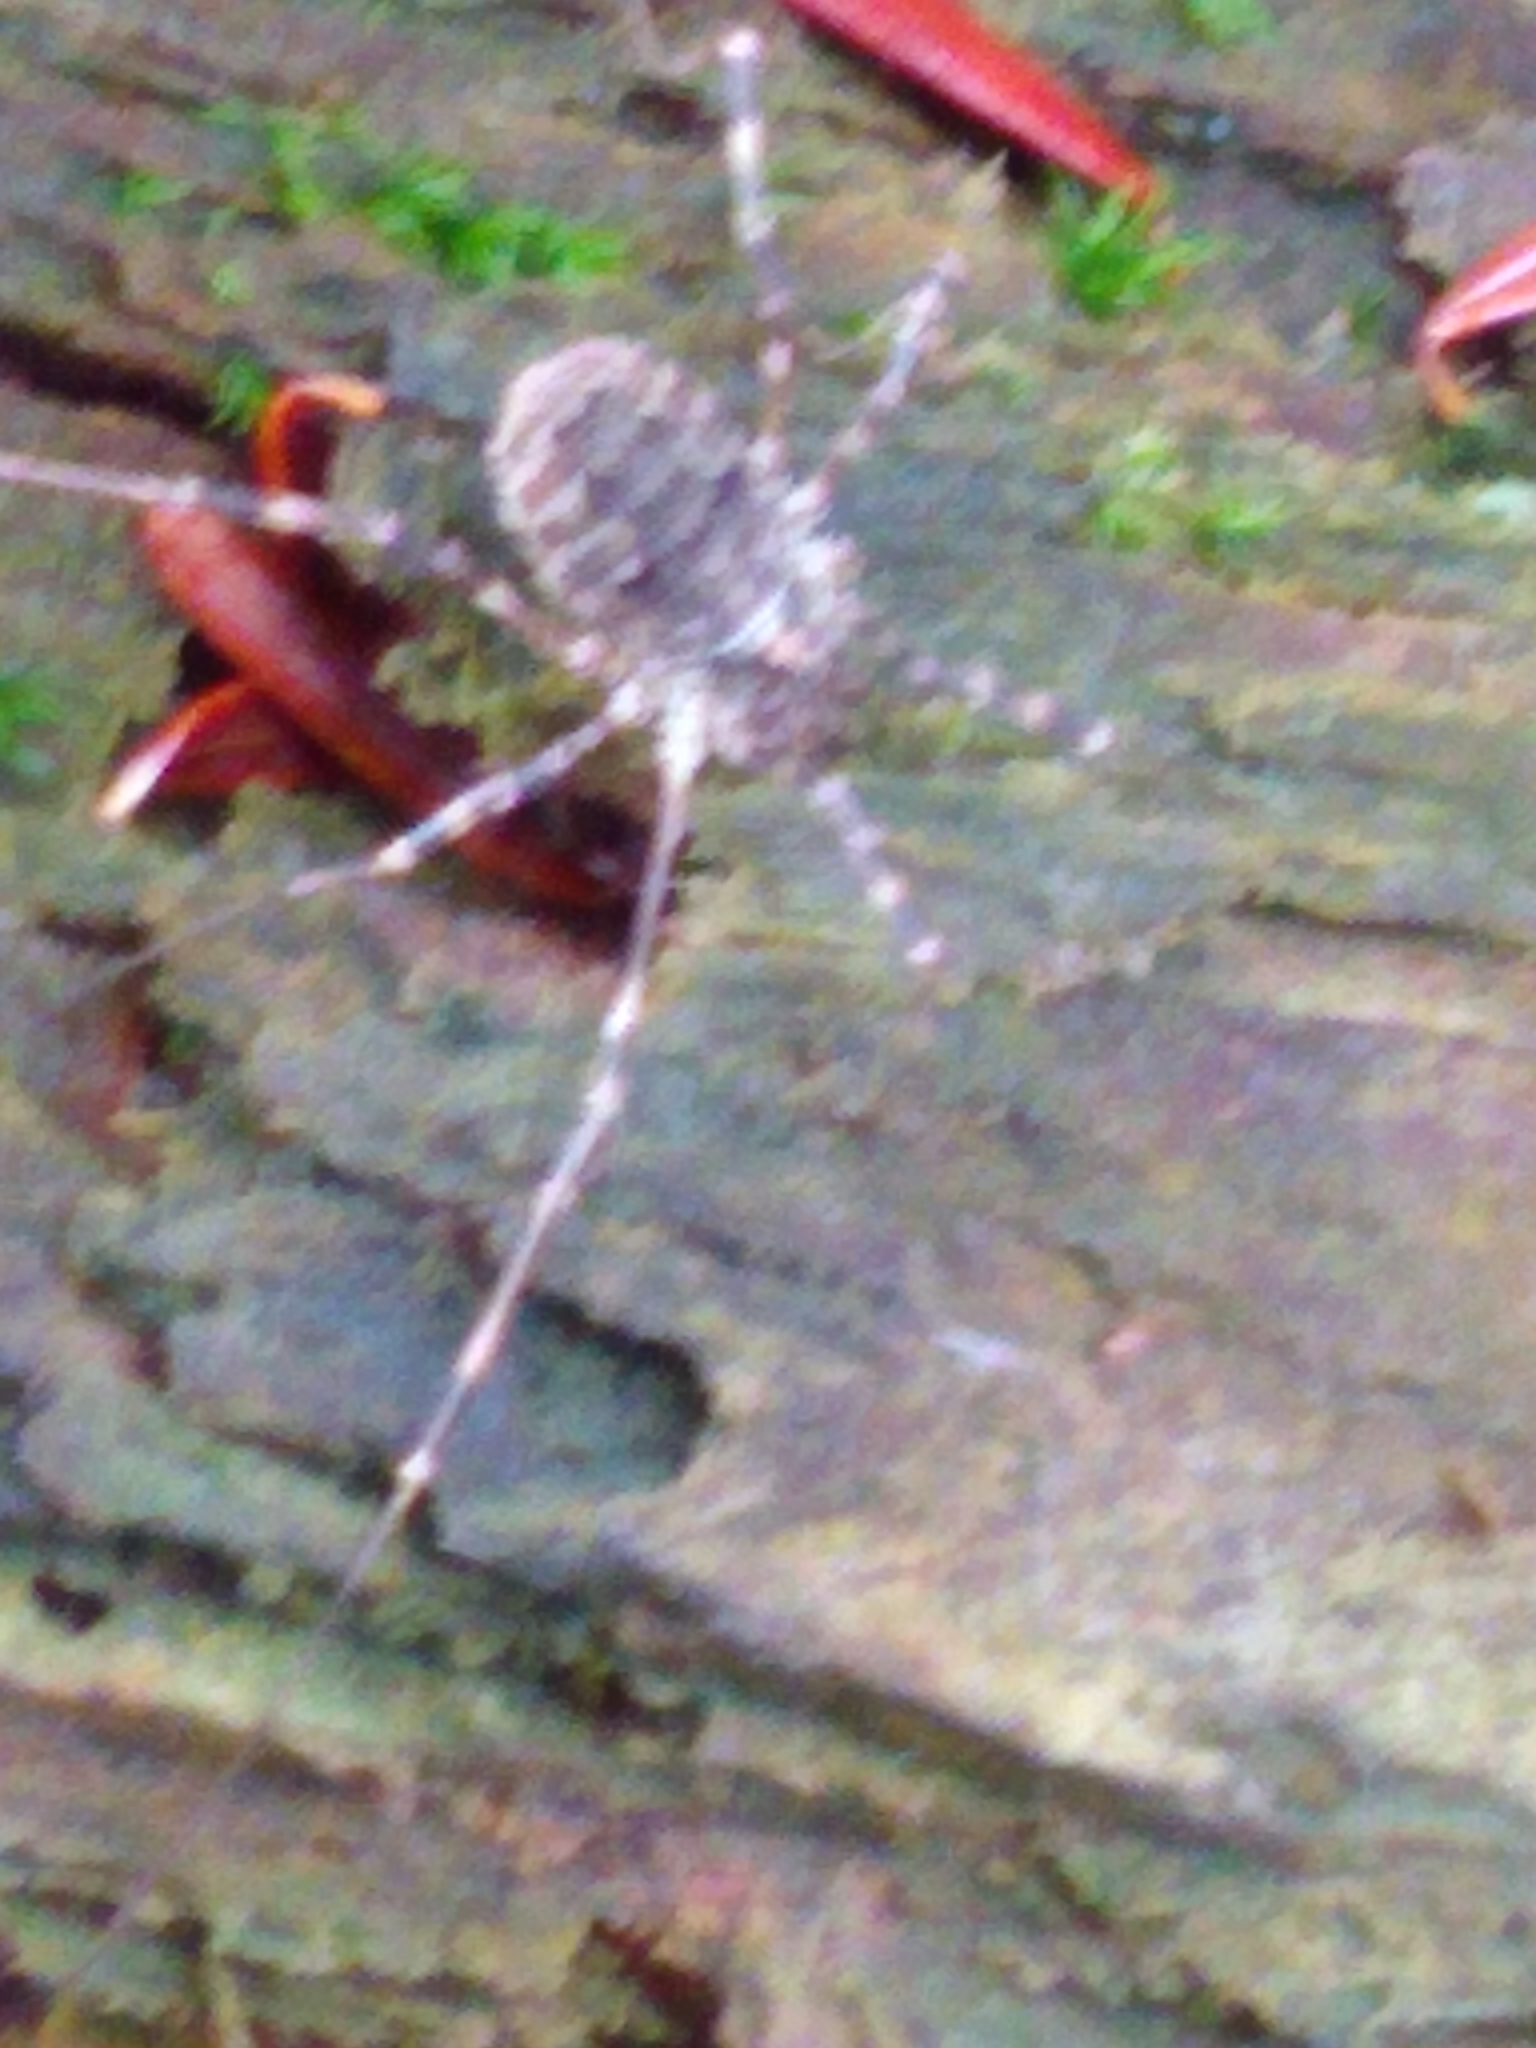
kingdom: Animalia
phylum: Arthropoda
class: Arachnida
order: Opiliones
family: Phalangiidae
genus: Odiellus
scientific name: Odiellus pictus
